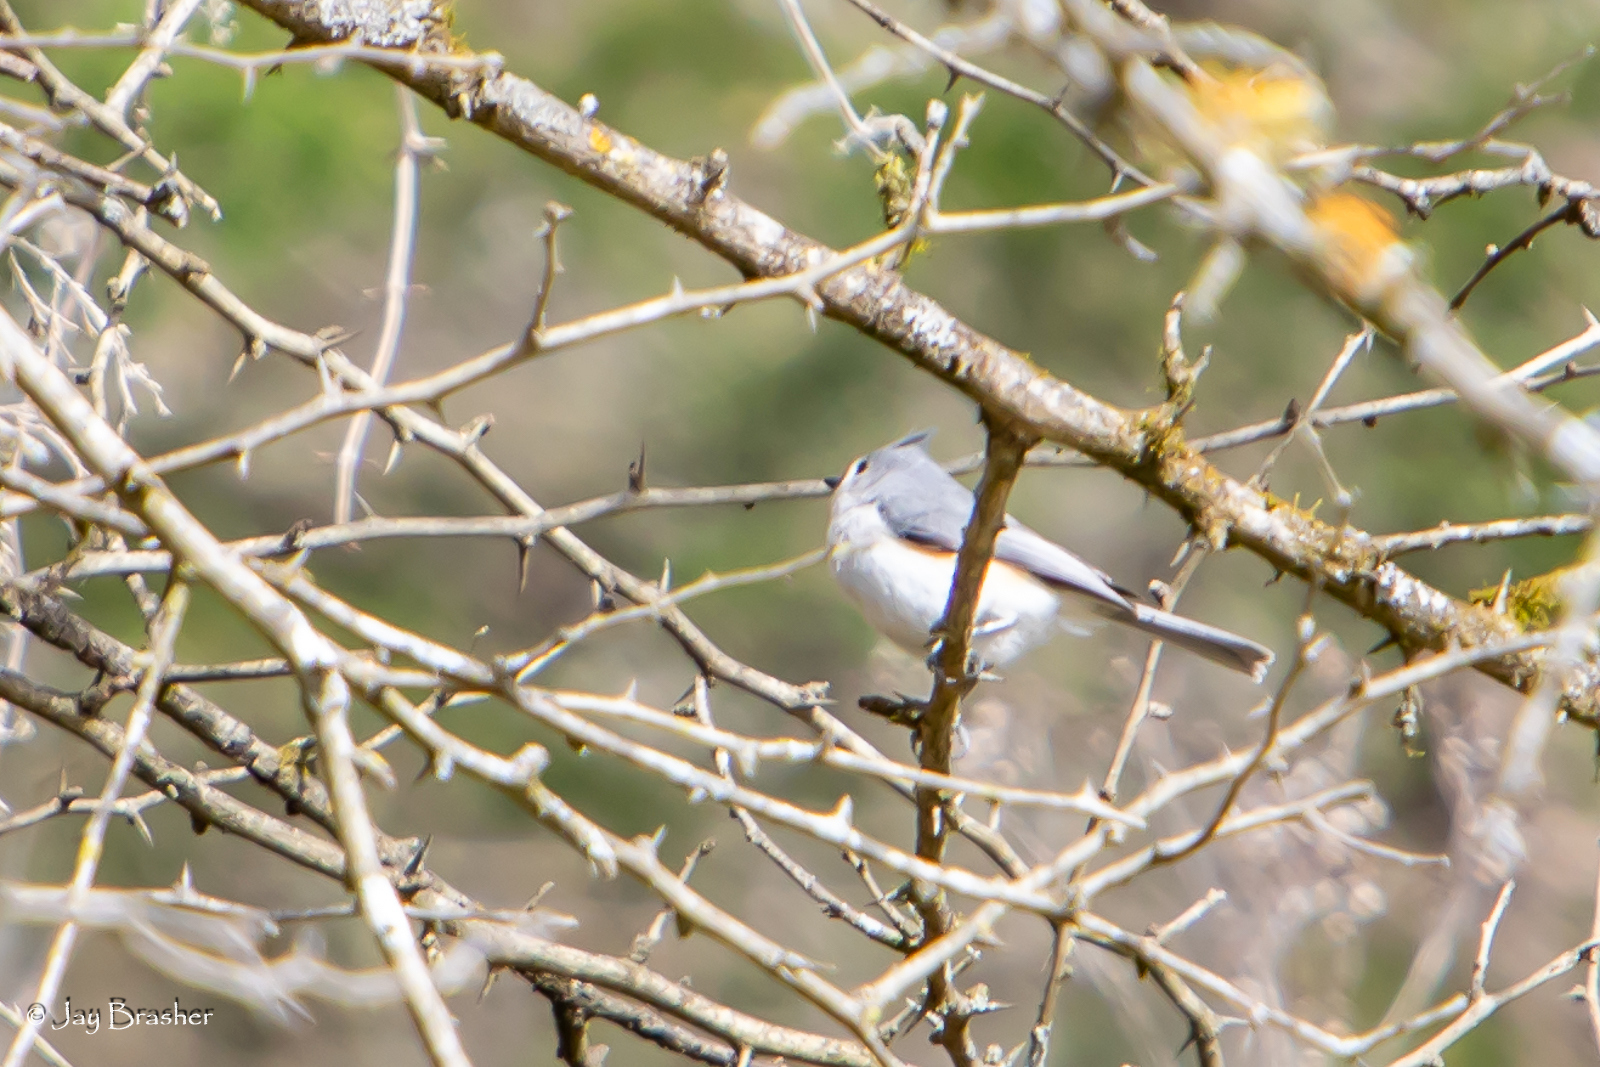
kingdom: Animalia
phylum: Chordata
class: Aves
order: Passeriformes
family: Paridae
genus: Baeolophus
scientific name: Baeolophus bicolor
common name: Tufted titmouse
